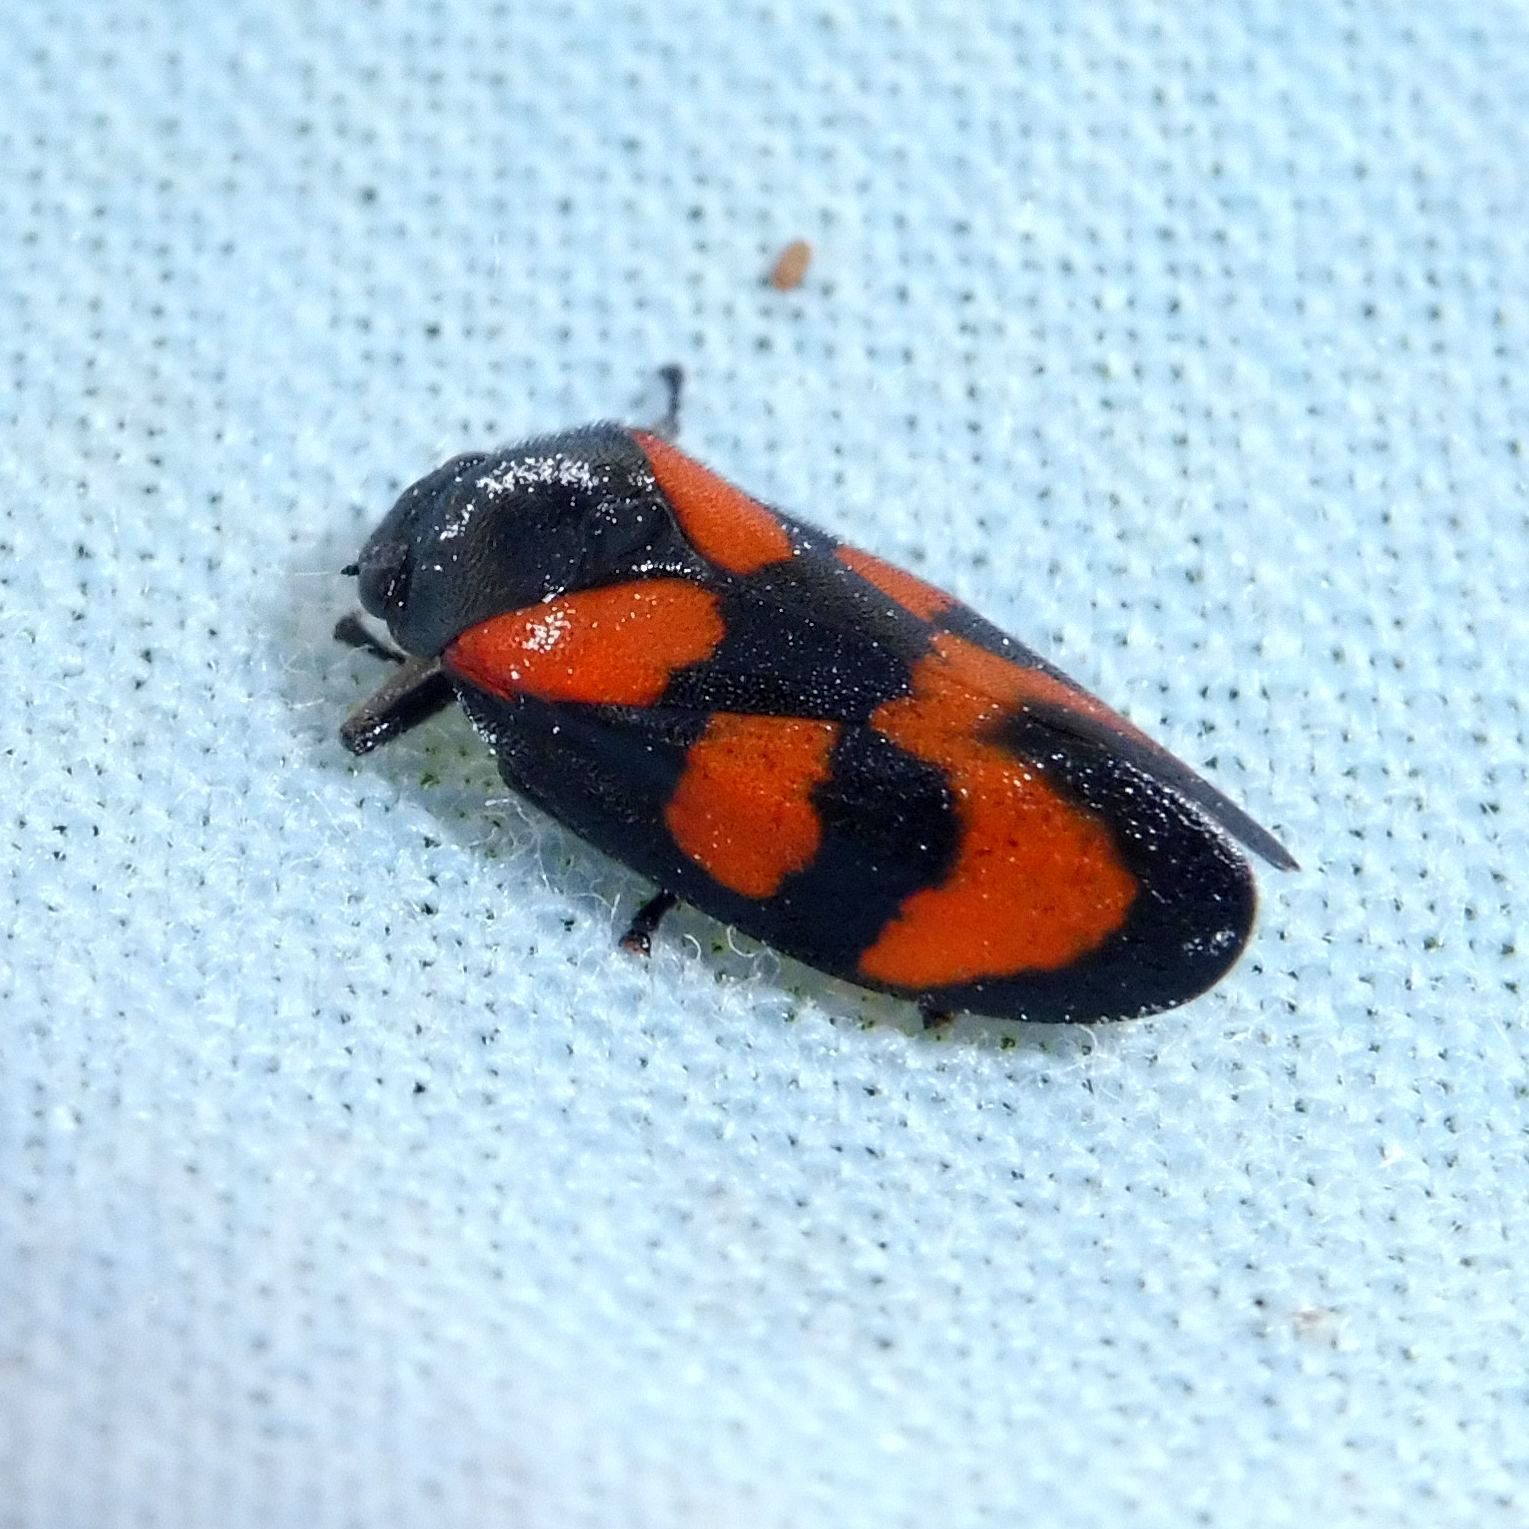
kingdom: Animalia
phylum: Arthropoda
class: Insecta
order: Hemiptera
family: Cercopidae
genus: Cercopis
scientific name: Cercopis vulnerata
